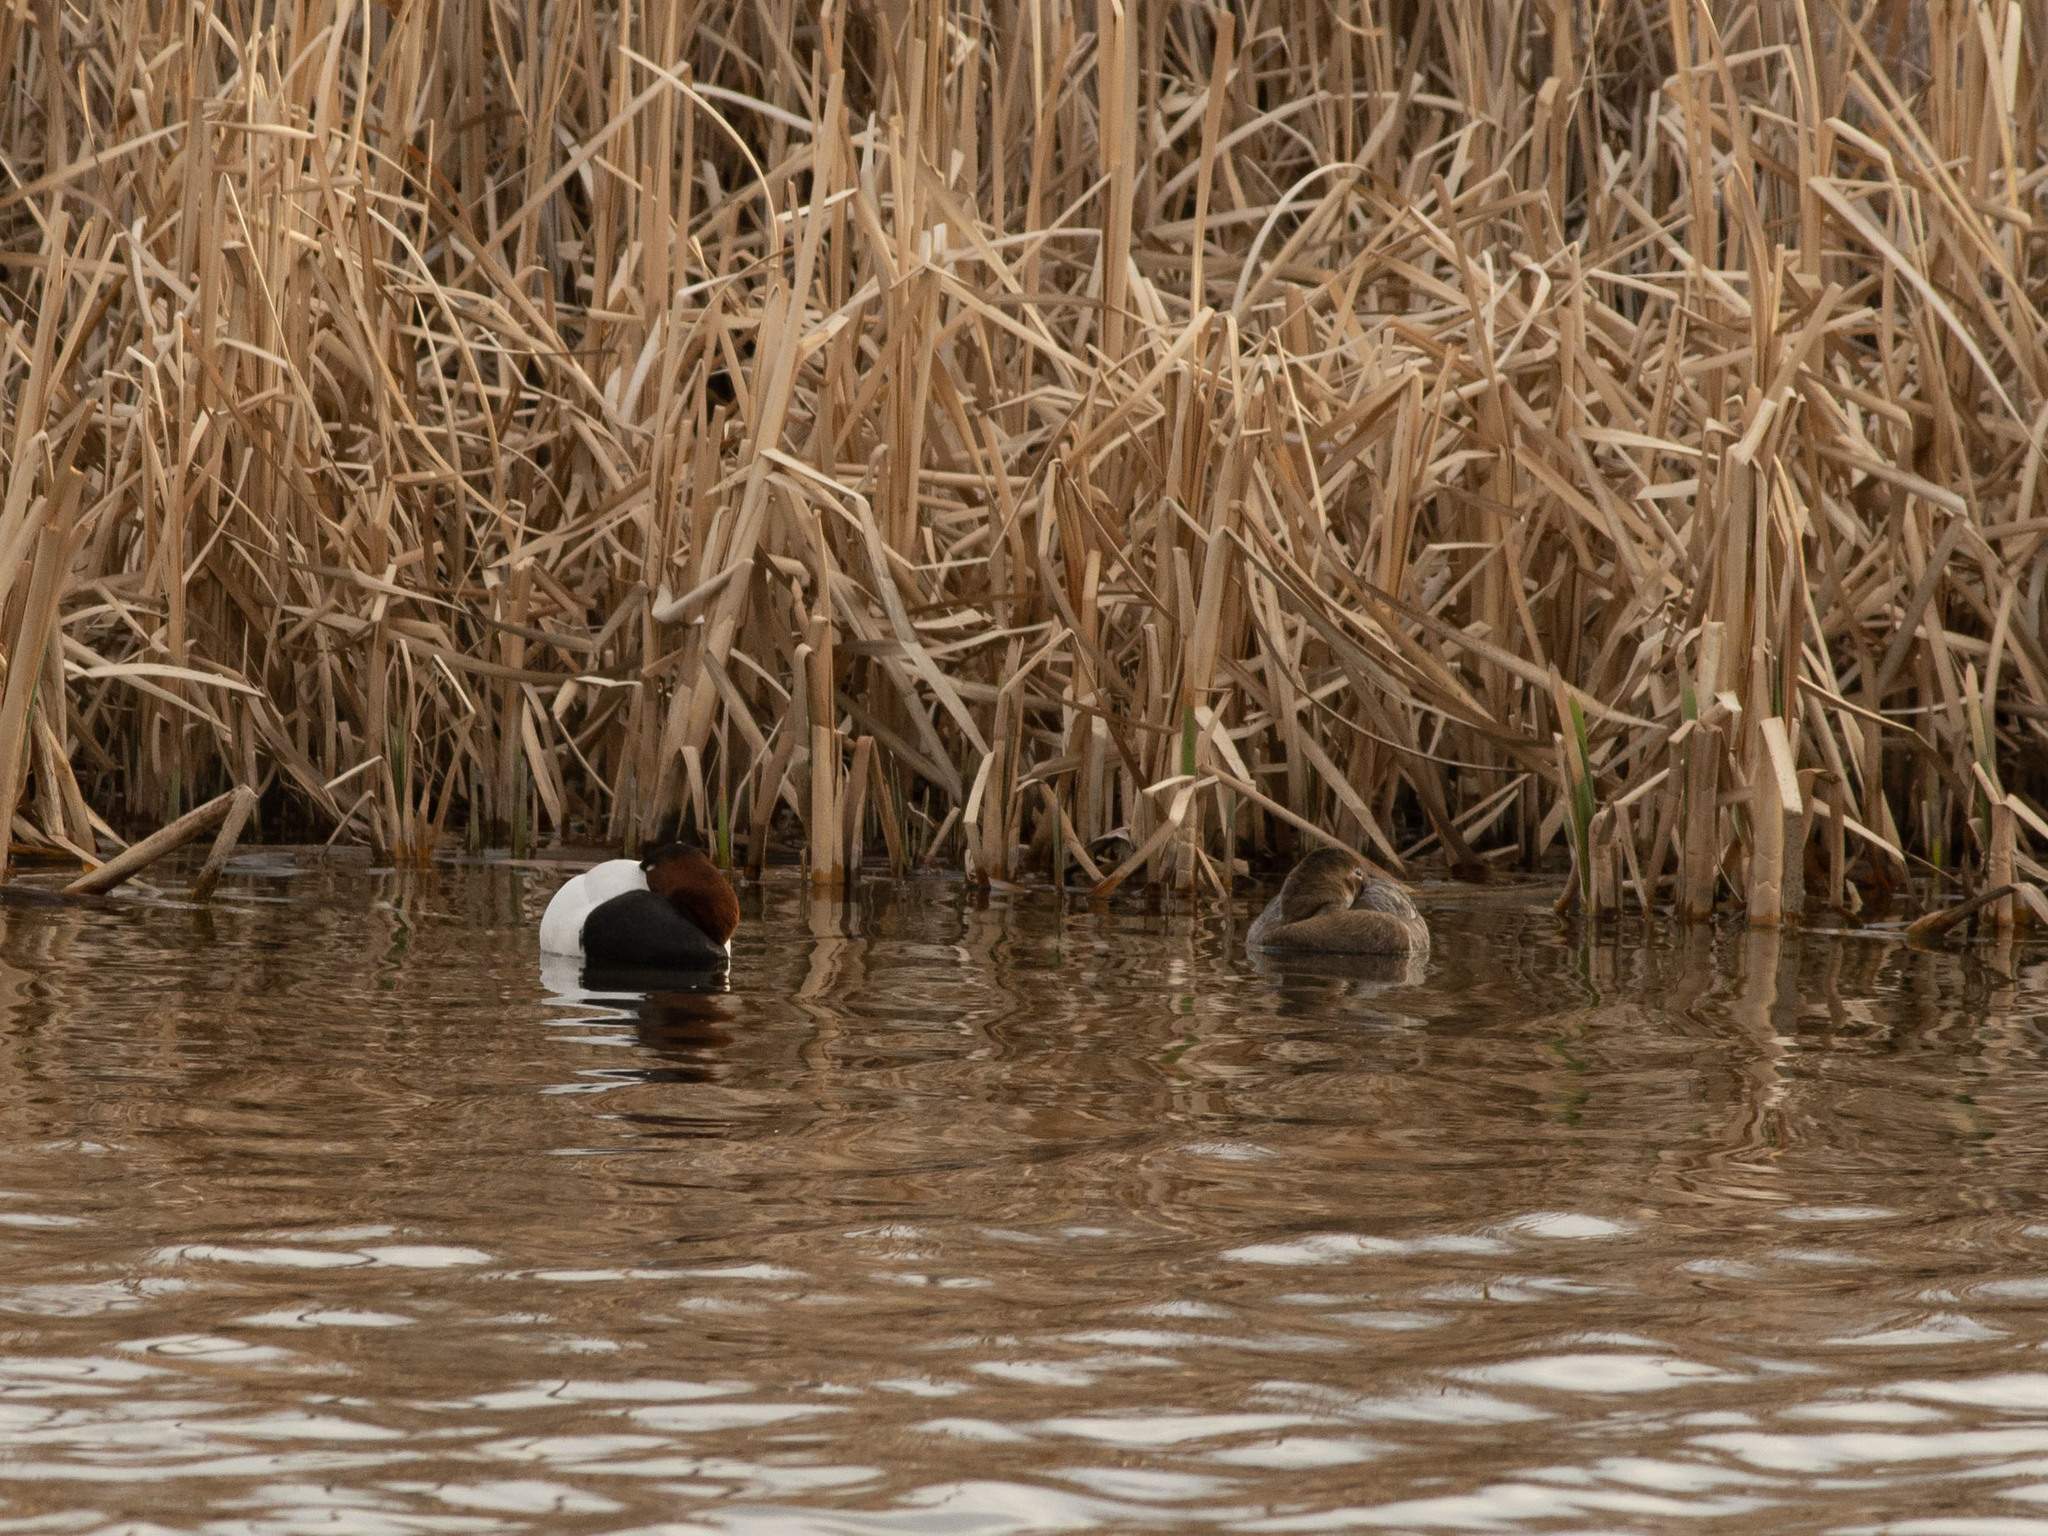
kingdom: Animalia
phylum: Chordata
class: Aves
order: Anseriformes
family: Anatidae
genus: Aythya
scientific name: Aythya valisineria
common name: Canvasback
